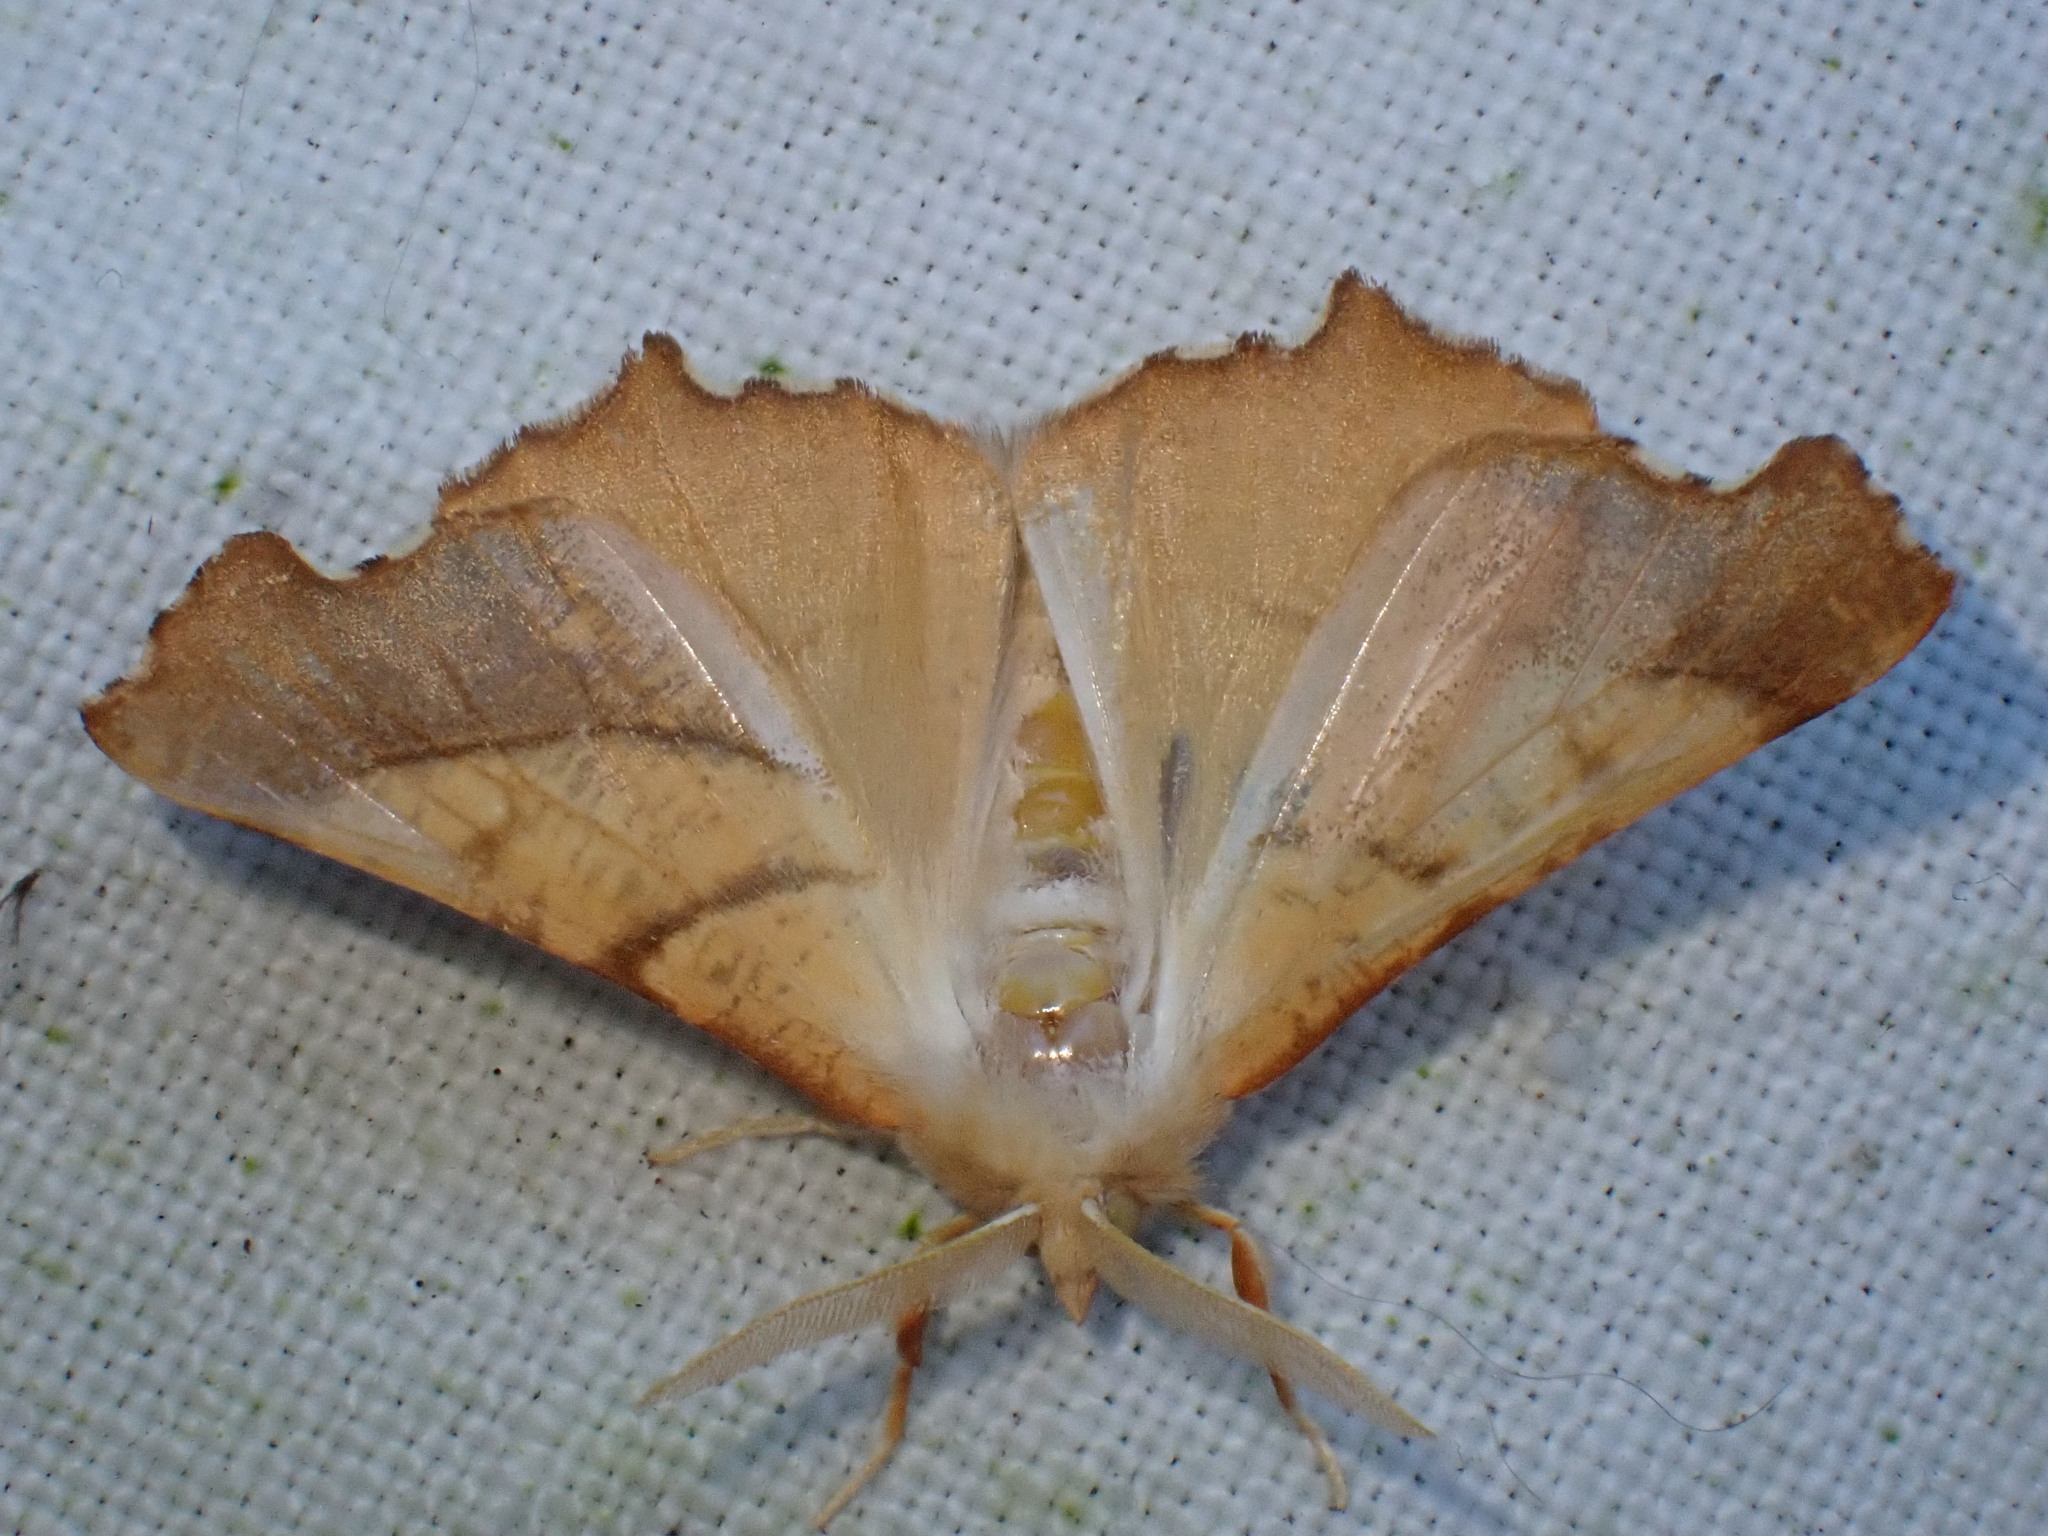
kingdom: Animalia
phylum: Arthropoda
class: Insecta
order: Lepidoptera
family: Geometridae
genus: Ennomos
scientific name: Ennomos fuscantaria
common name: Dusky thorn
